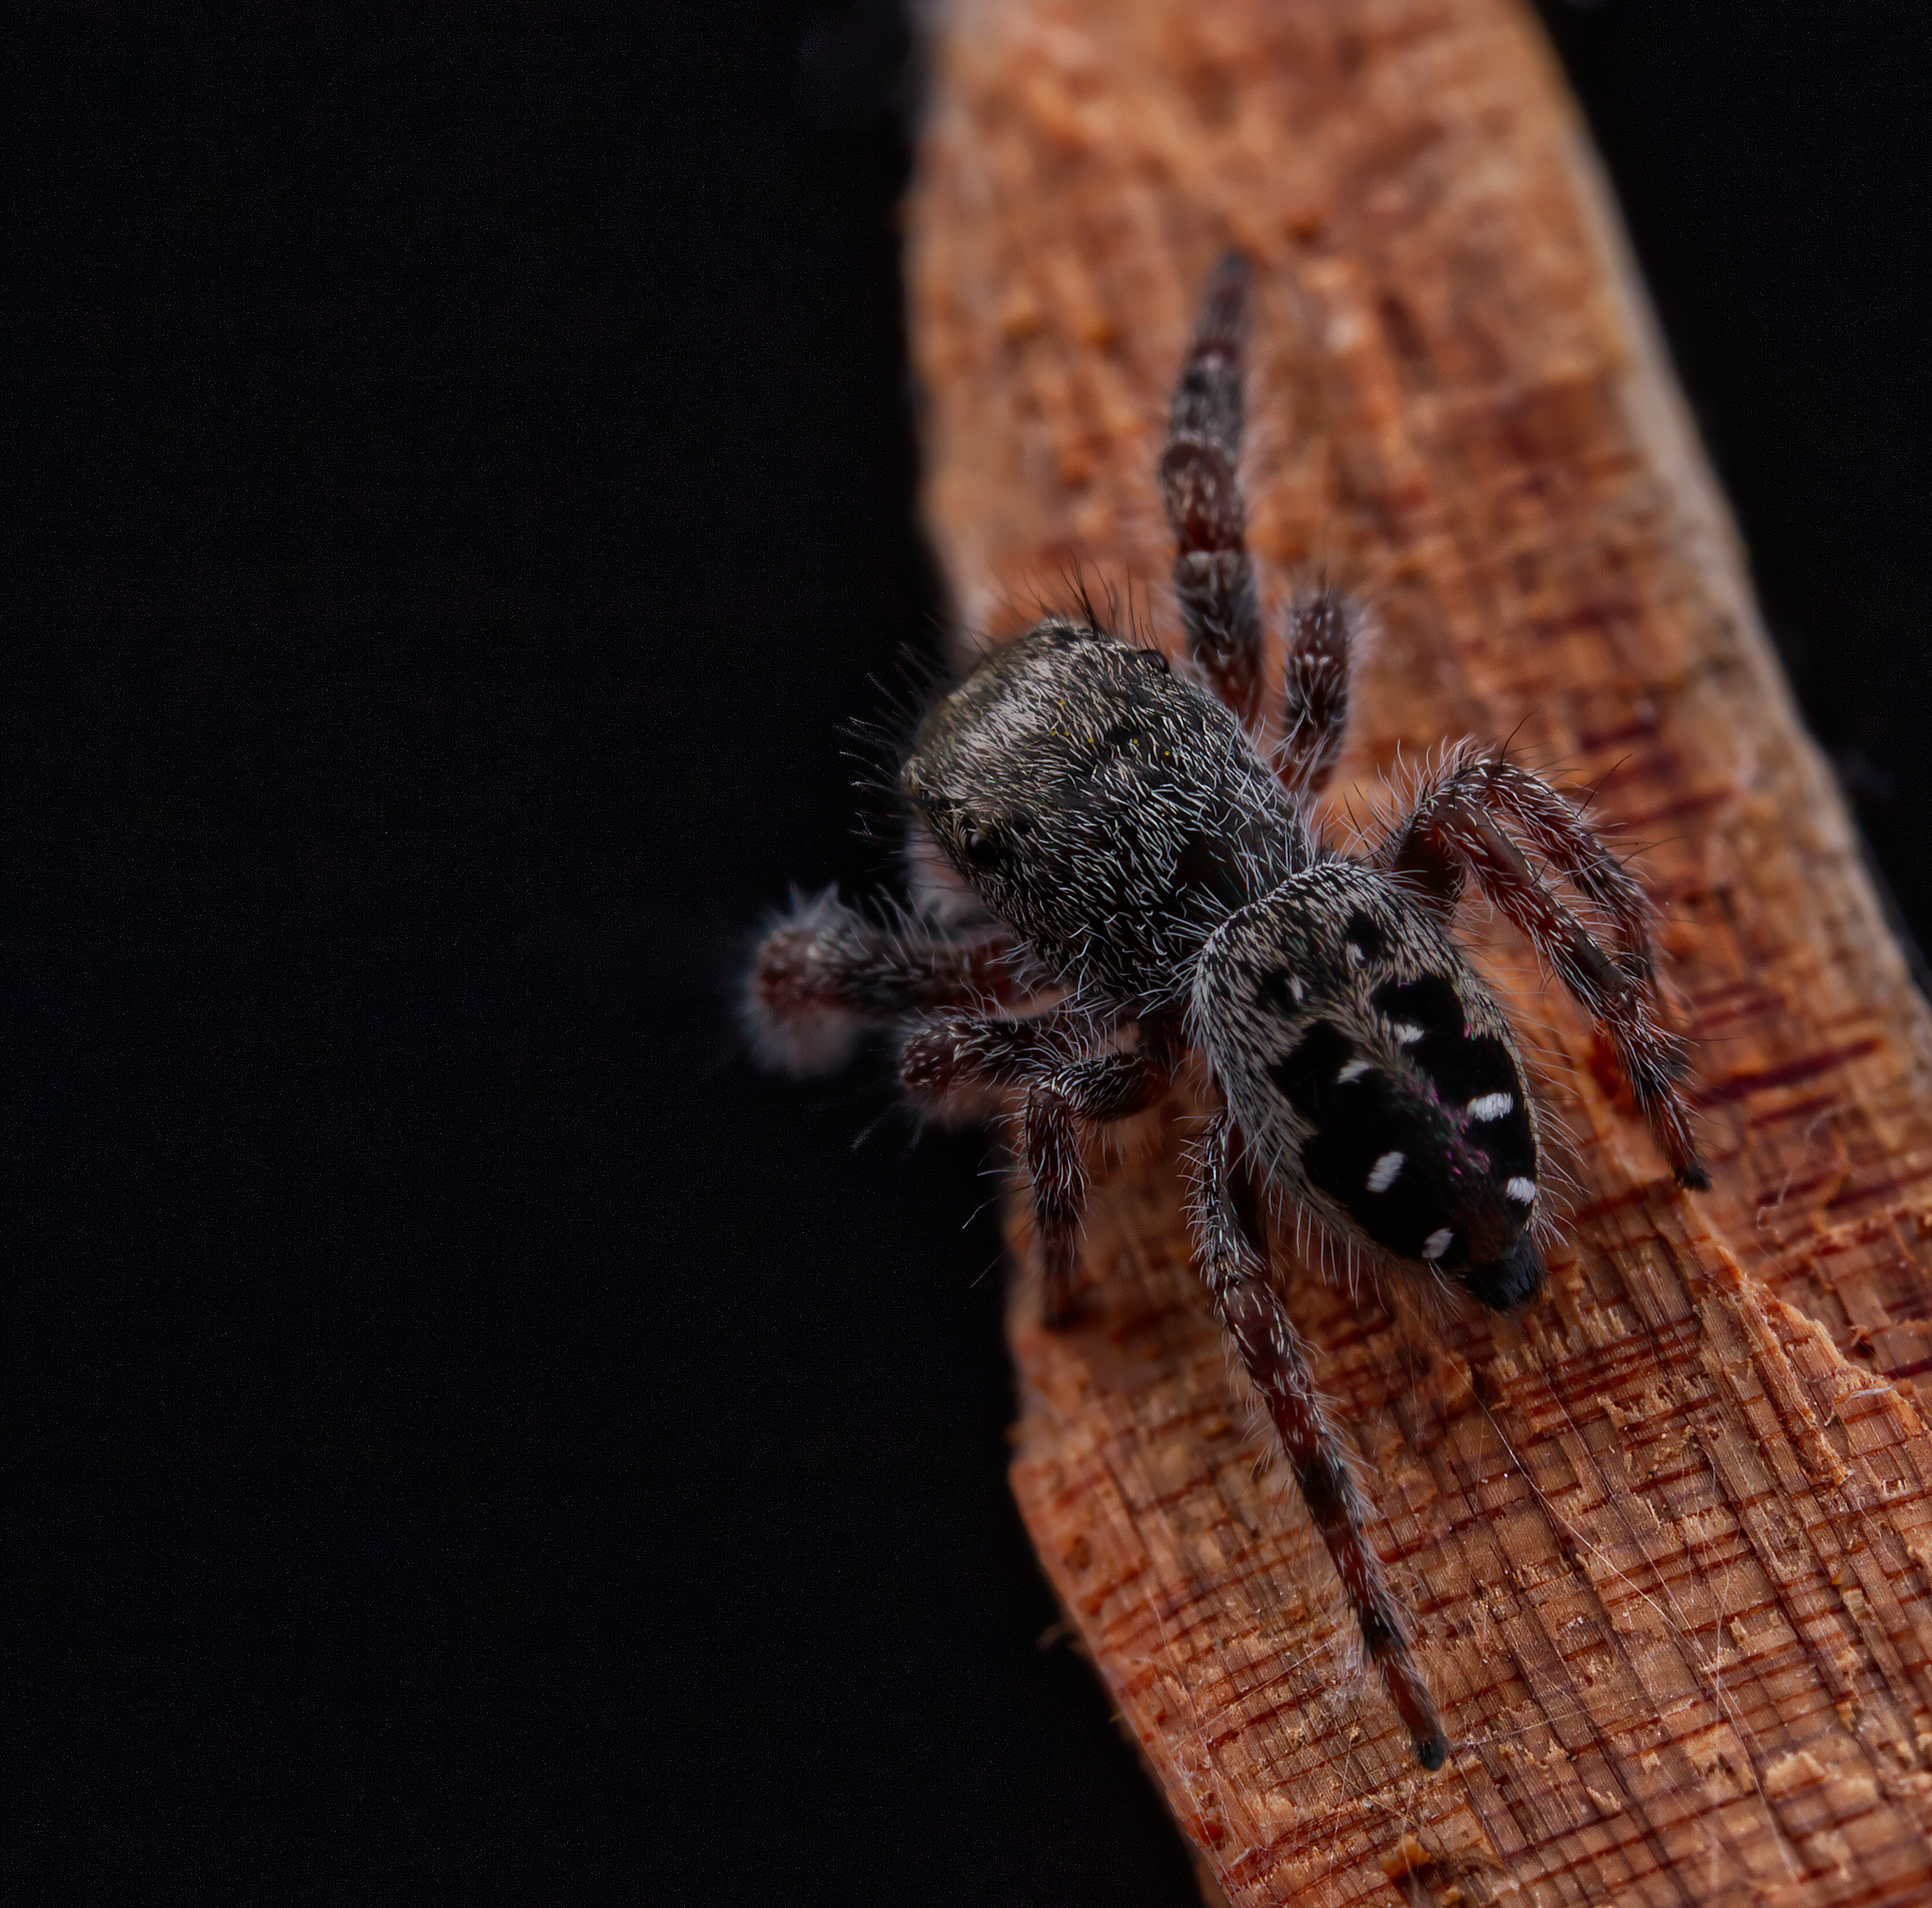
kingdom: Animalia
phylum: Arthropoda
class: Arachnida
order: Araneae
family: Salticidae
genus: Phidippus
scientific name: Phidippus purpuratus
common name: Marbled purple jumping spider
